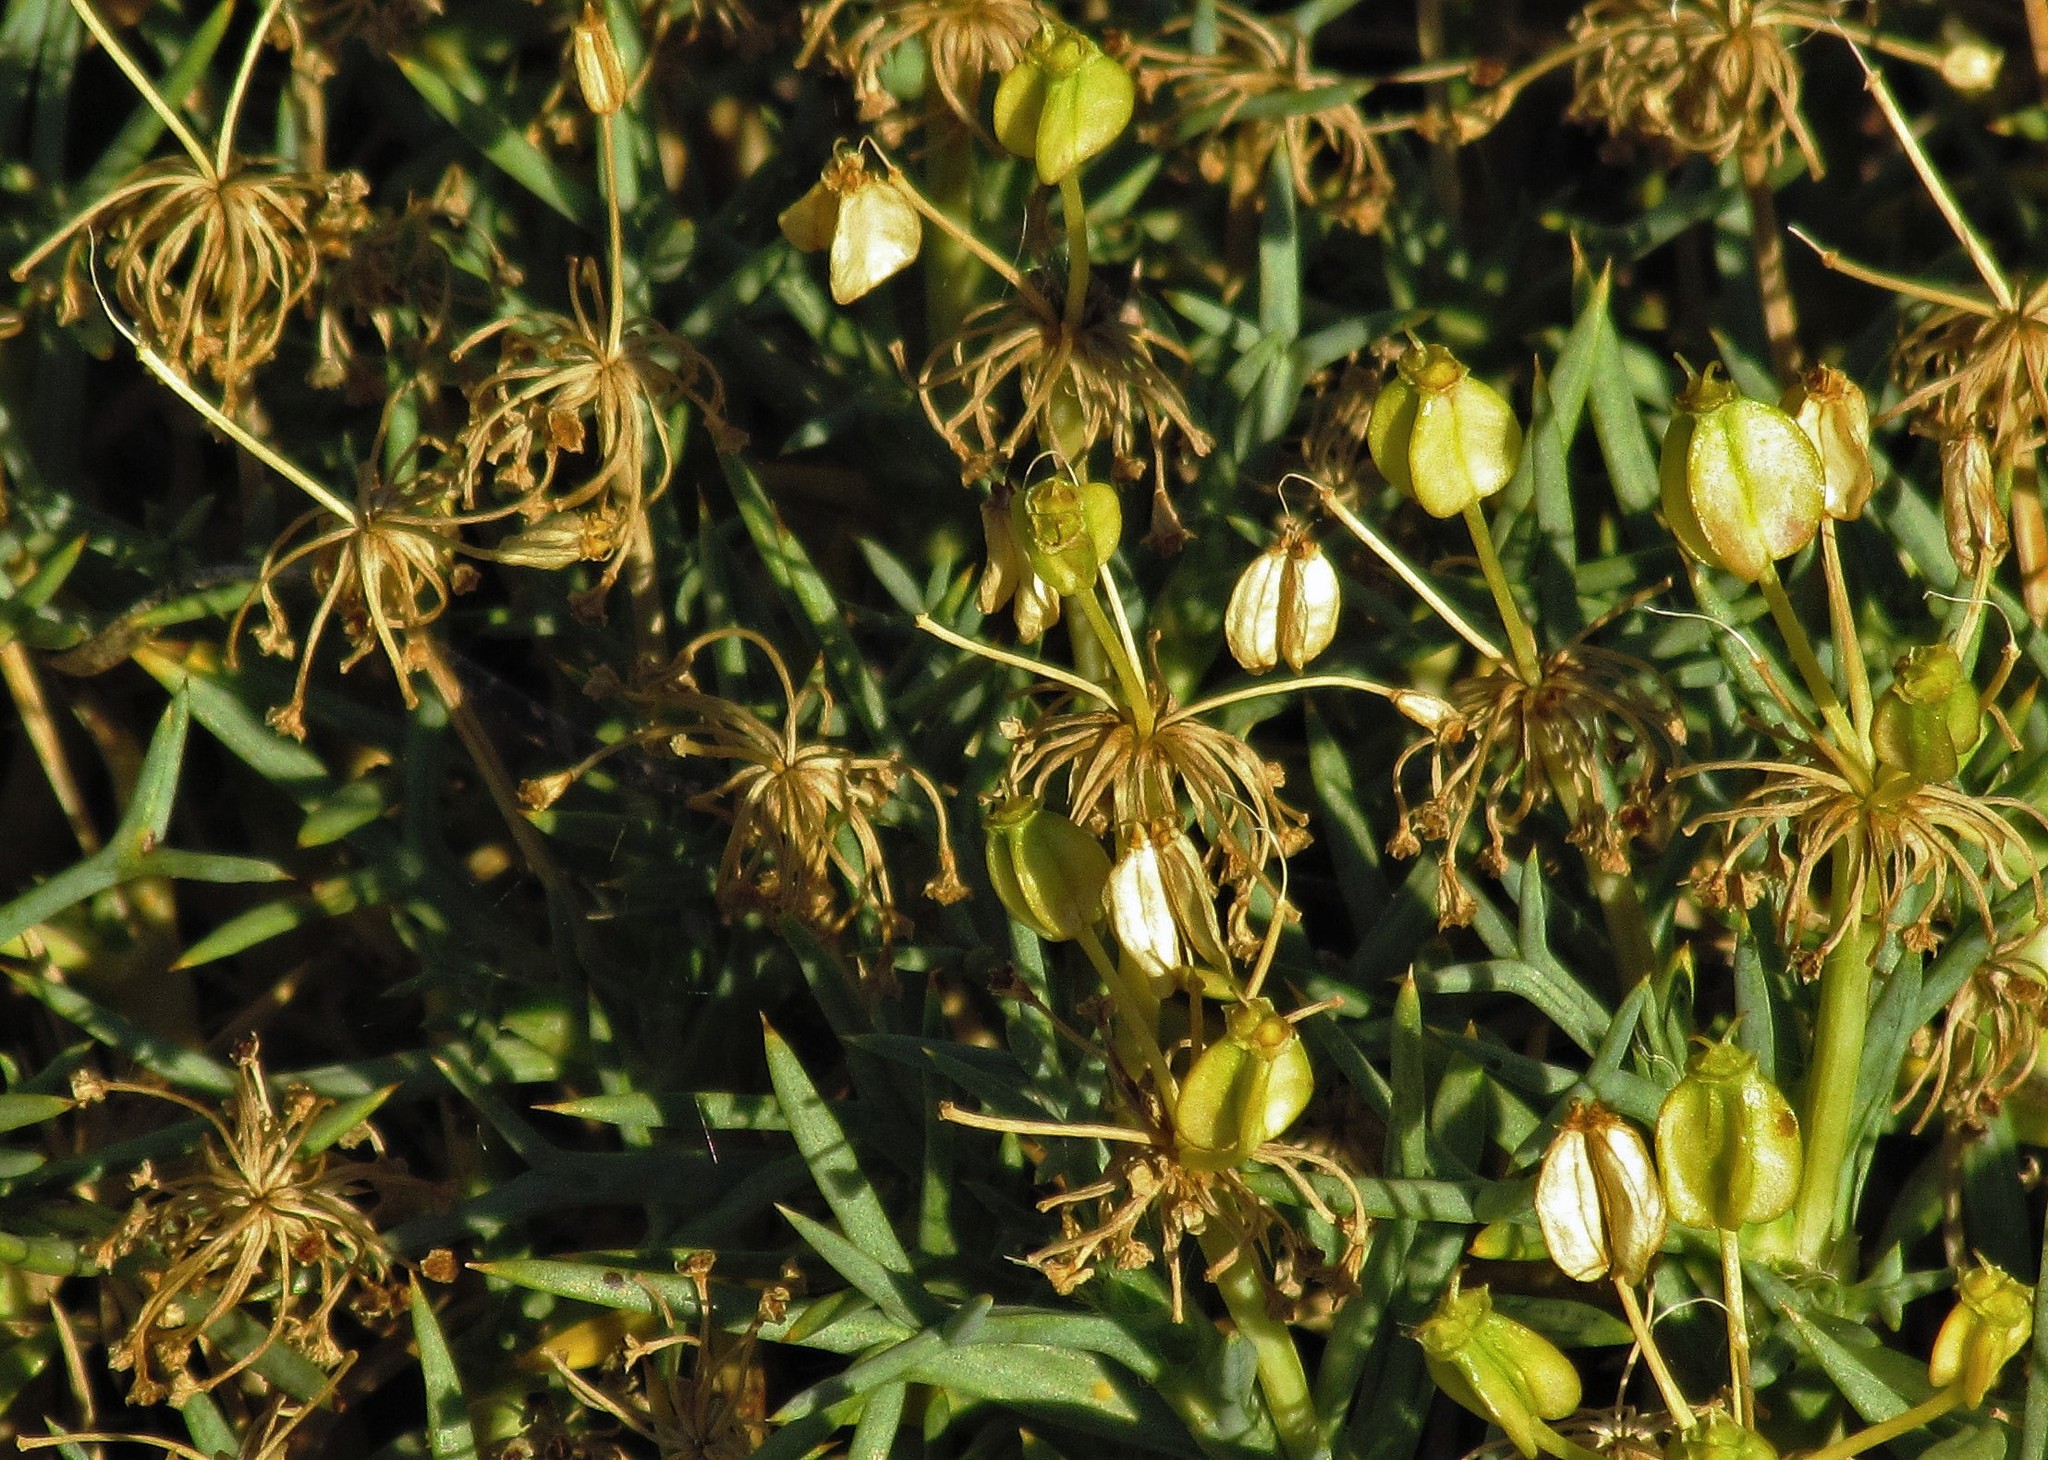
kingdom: Plantae
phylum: Tracheophyta
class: Magnoliopsida
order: Apiales
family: Apiaceae
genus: Azorella
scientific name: Azorella prolifera
